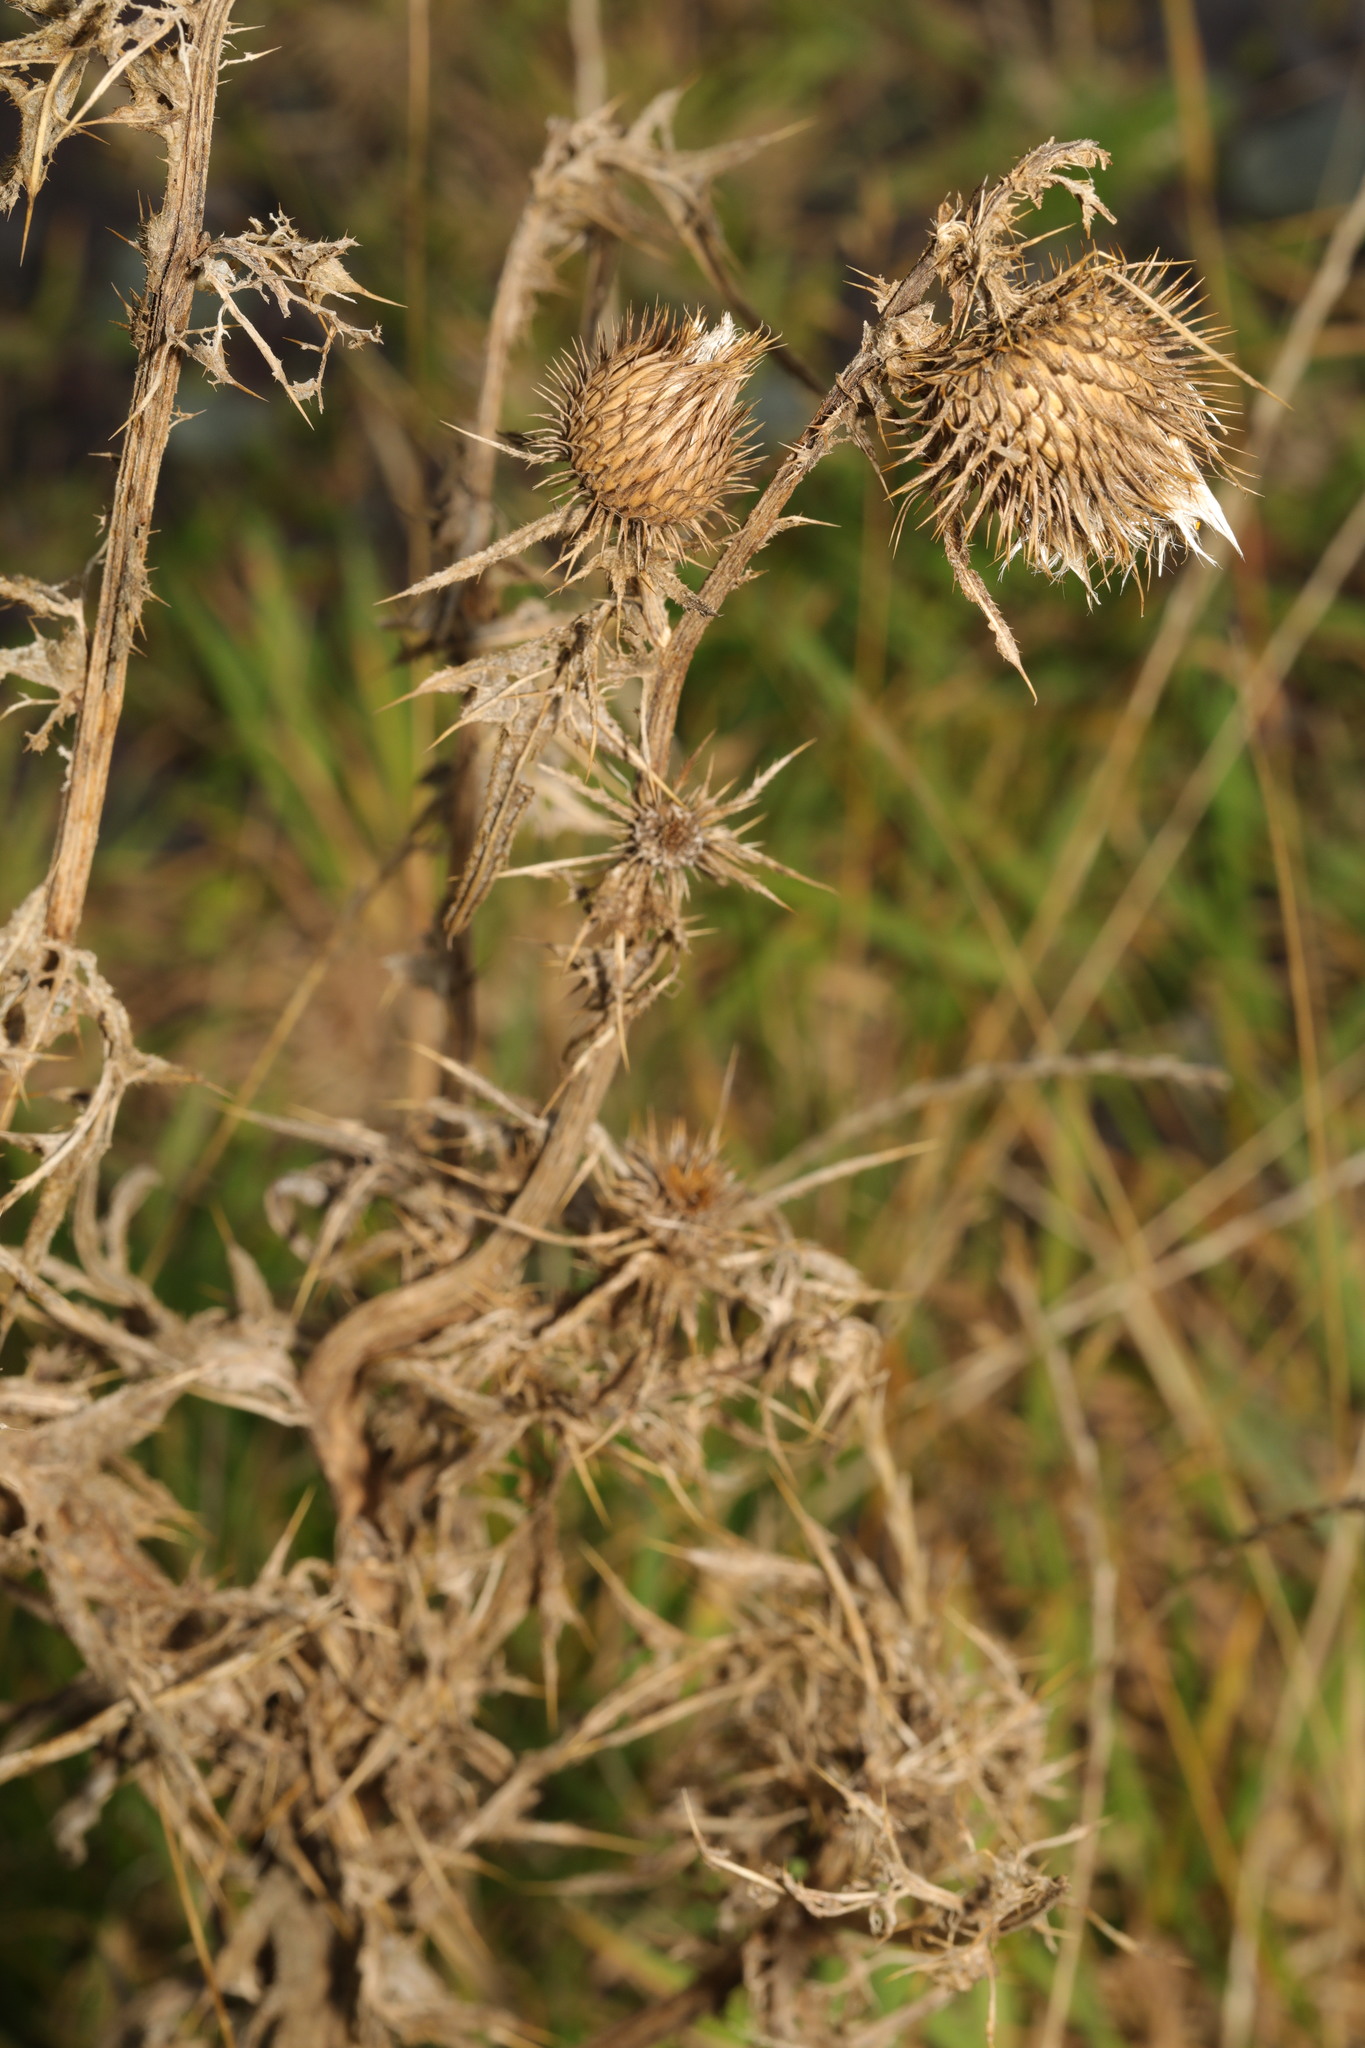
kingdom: Plantae
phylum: Tracheophyta
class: Magnoliopsida
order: Asterales
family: Asteraceae
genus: Cirsium
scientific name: Cirsium vulgare
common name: Bull thistle
